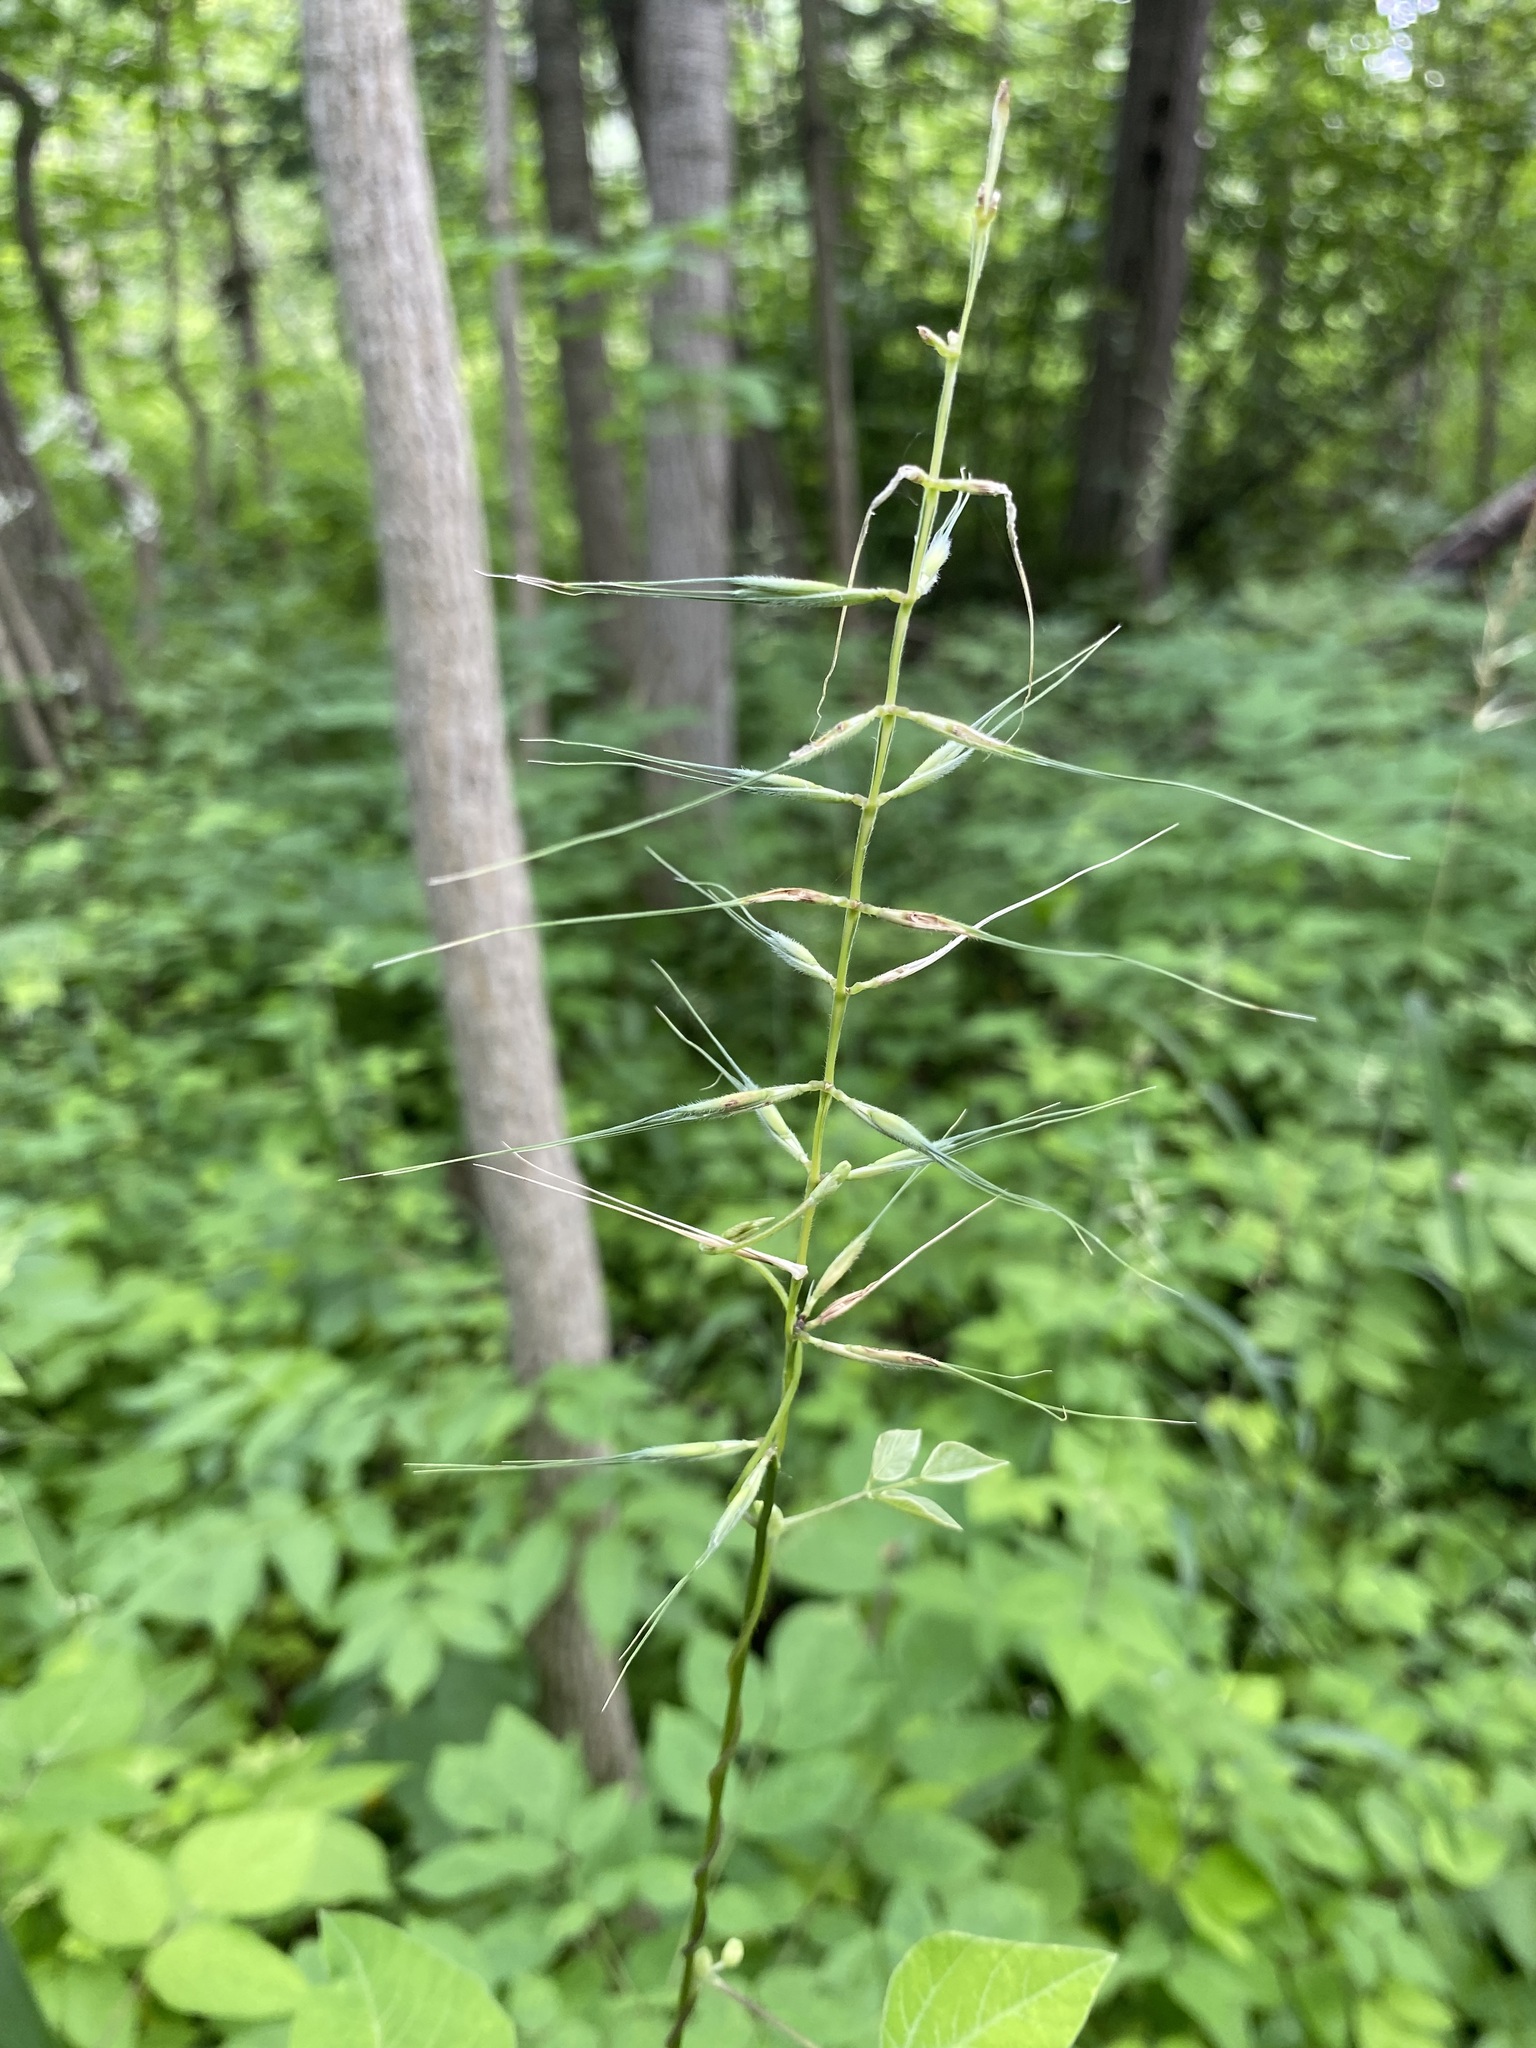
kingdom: Plantae
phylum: Tracheophyta
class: Liliopsida
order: Poales
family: Poaceae
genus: Elymus
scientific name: Elymus hystrix
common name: Bottlebrush grass
